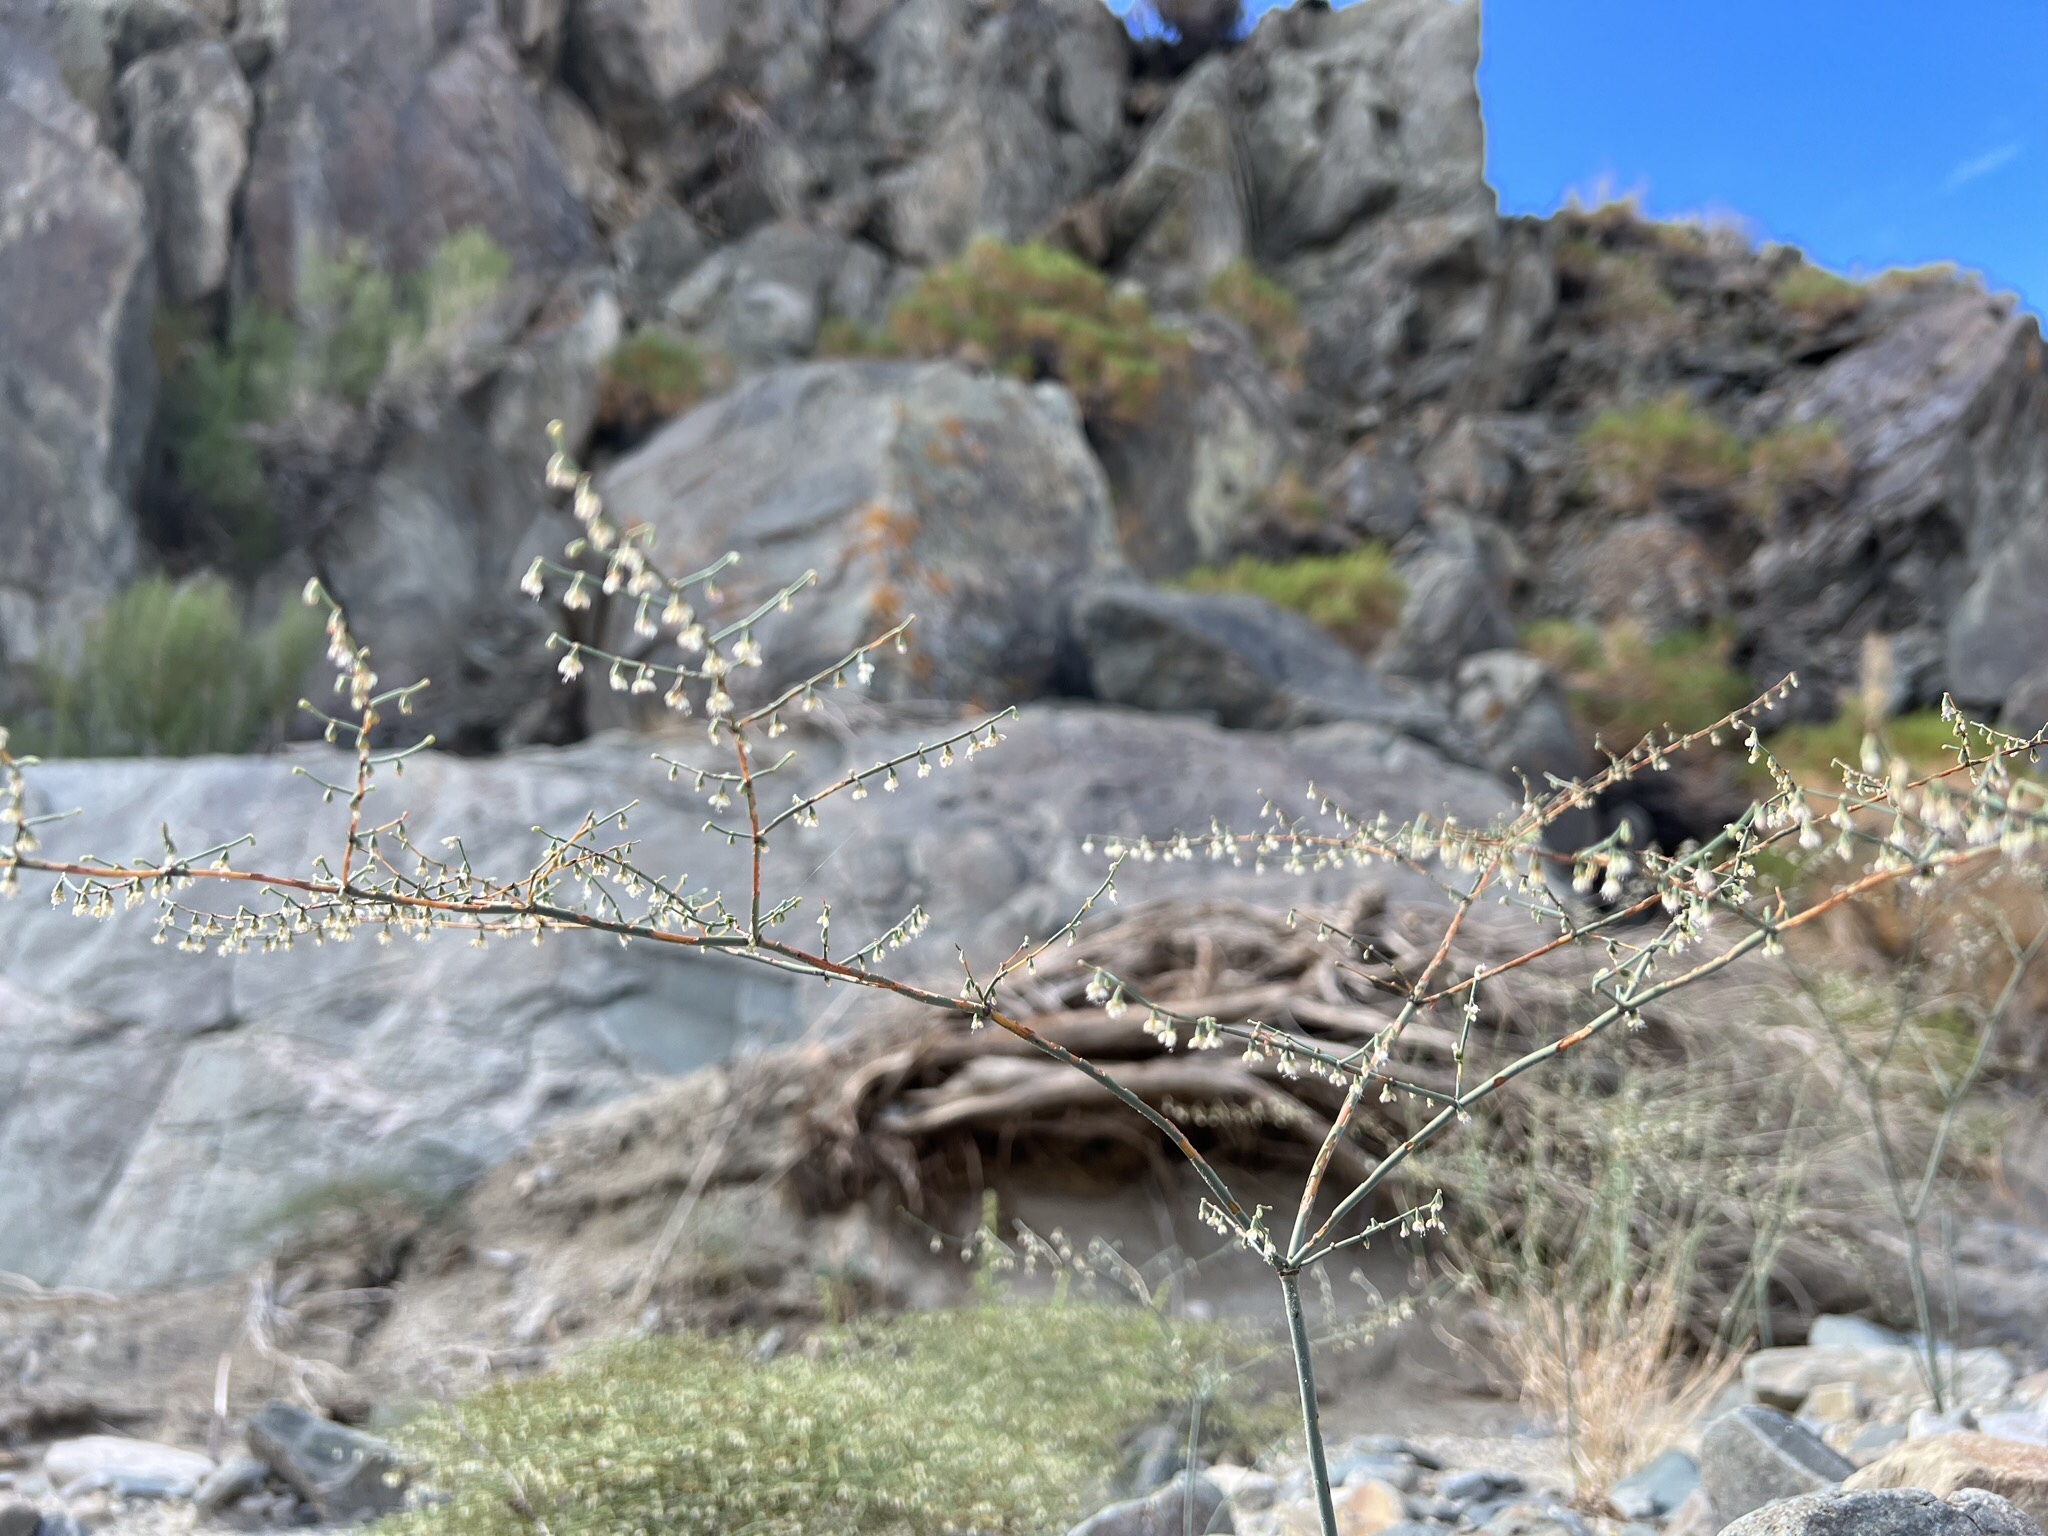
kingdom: Plantae
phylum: Tracheophyta
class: Magnoliopsida
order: Caryophyllales
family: Polygonaceae
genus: Eriogonum
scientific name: Eriogonum deflexum
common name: Skeleton-weed
